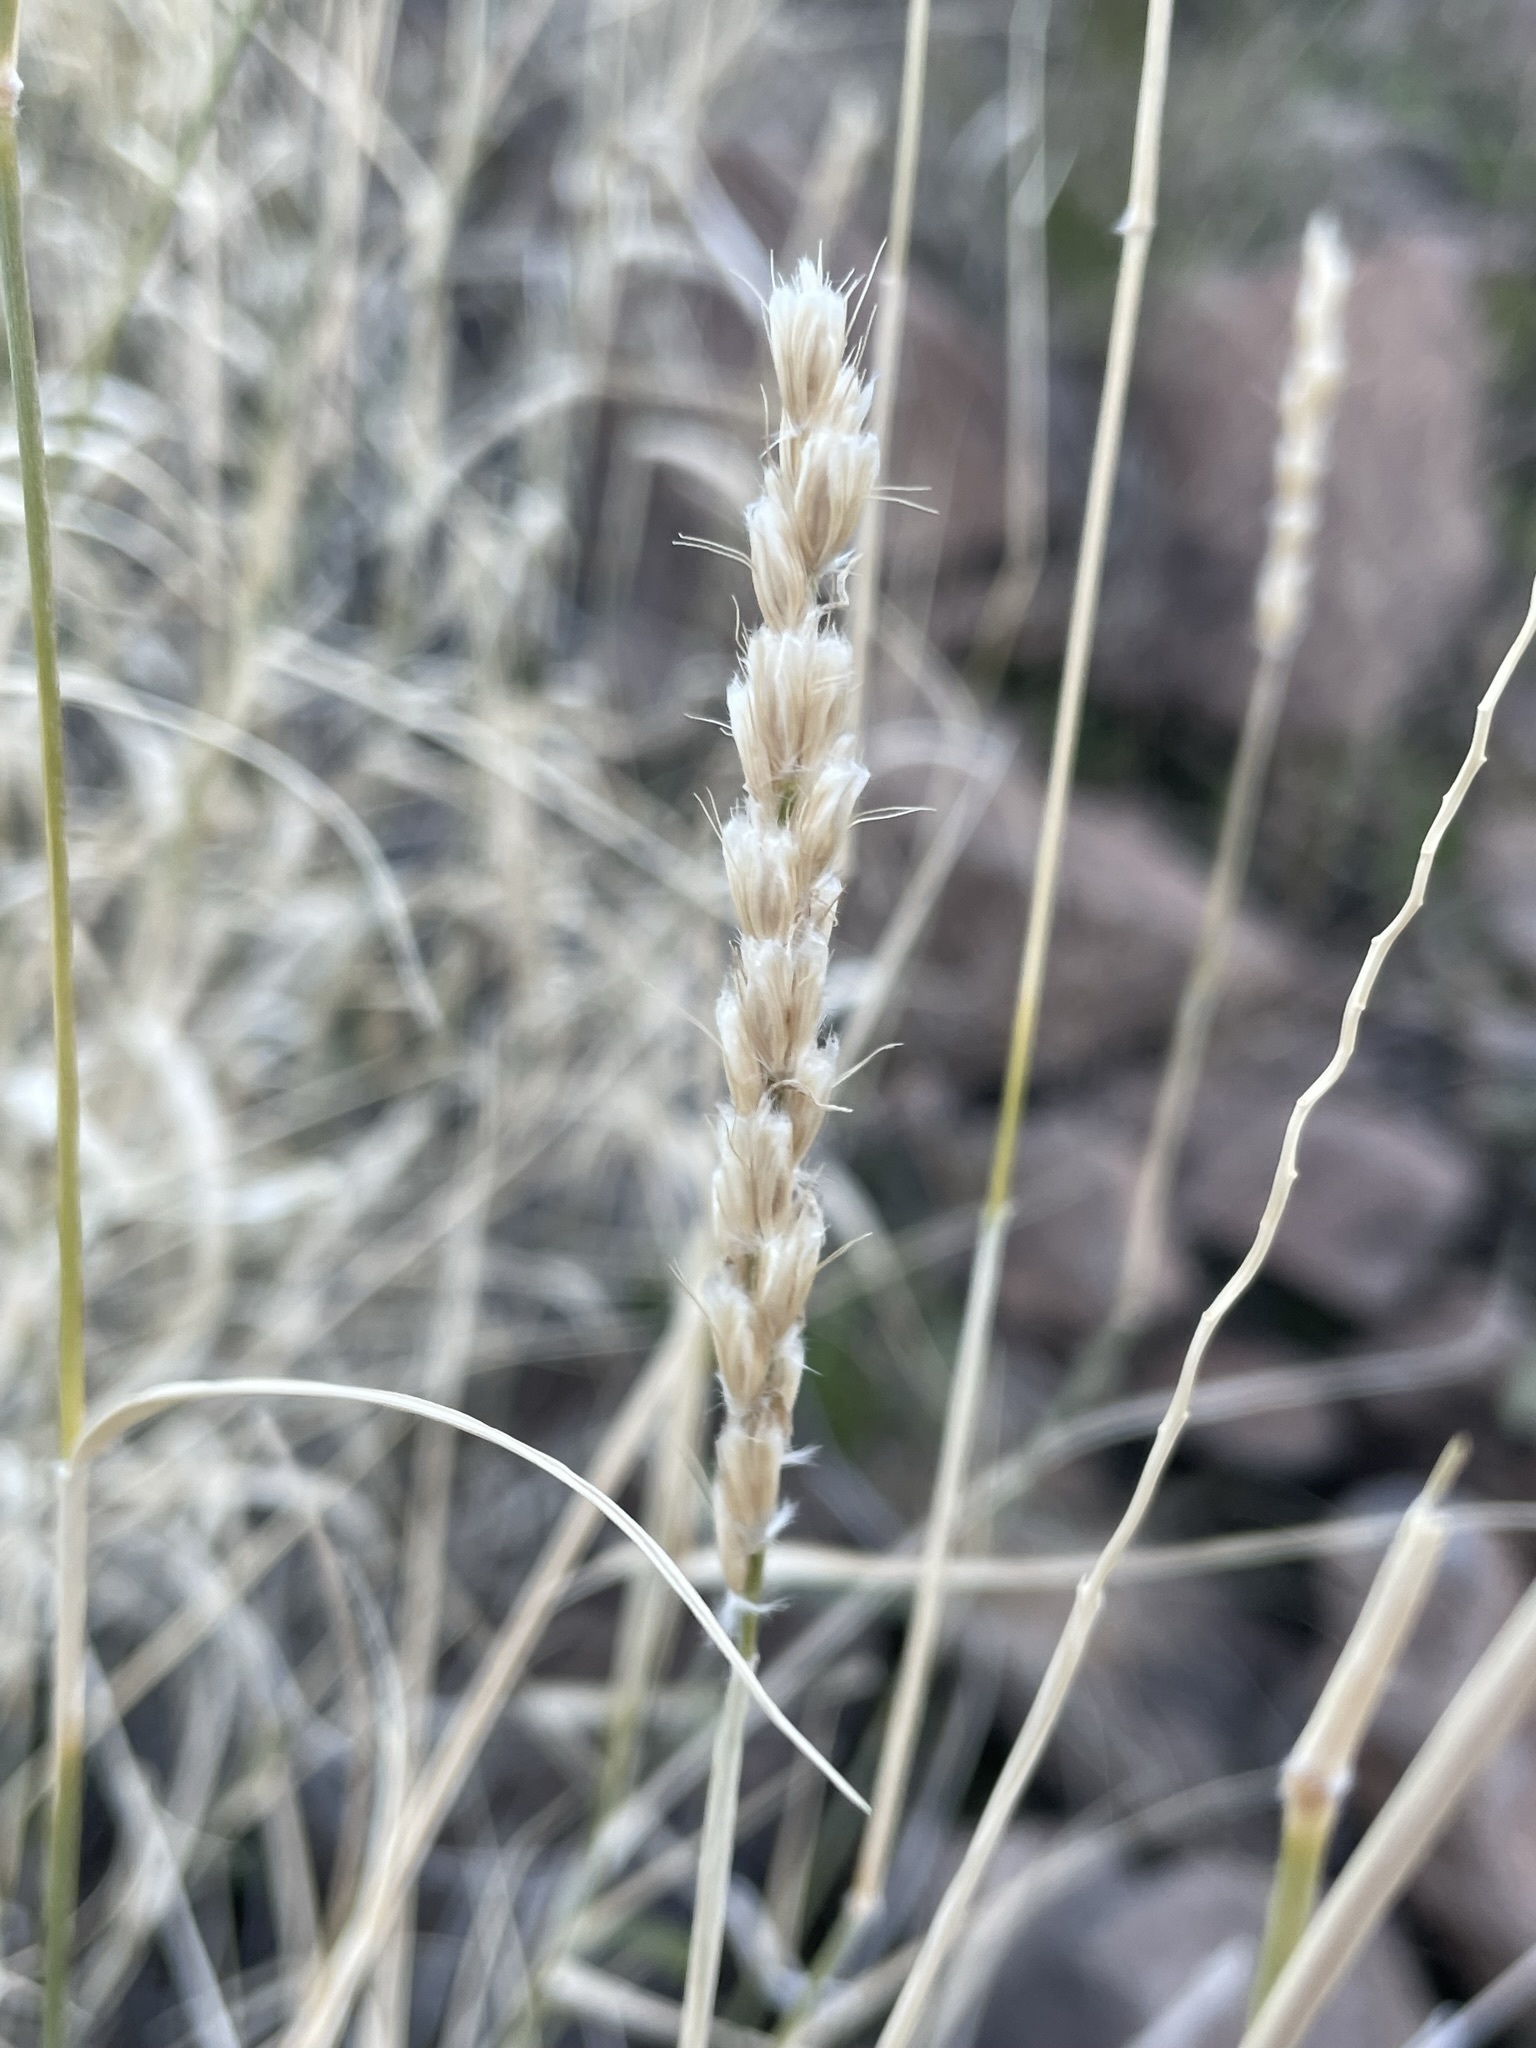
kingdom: Plantae
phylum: Tracheophyta
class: Liliopsida
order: Poales
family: Poaceae
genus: Hilaria
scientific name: Hilaria rigida
